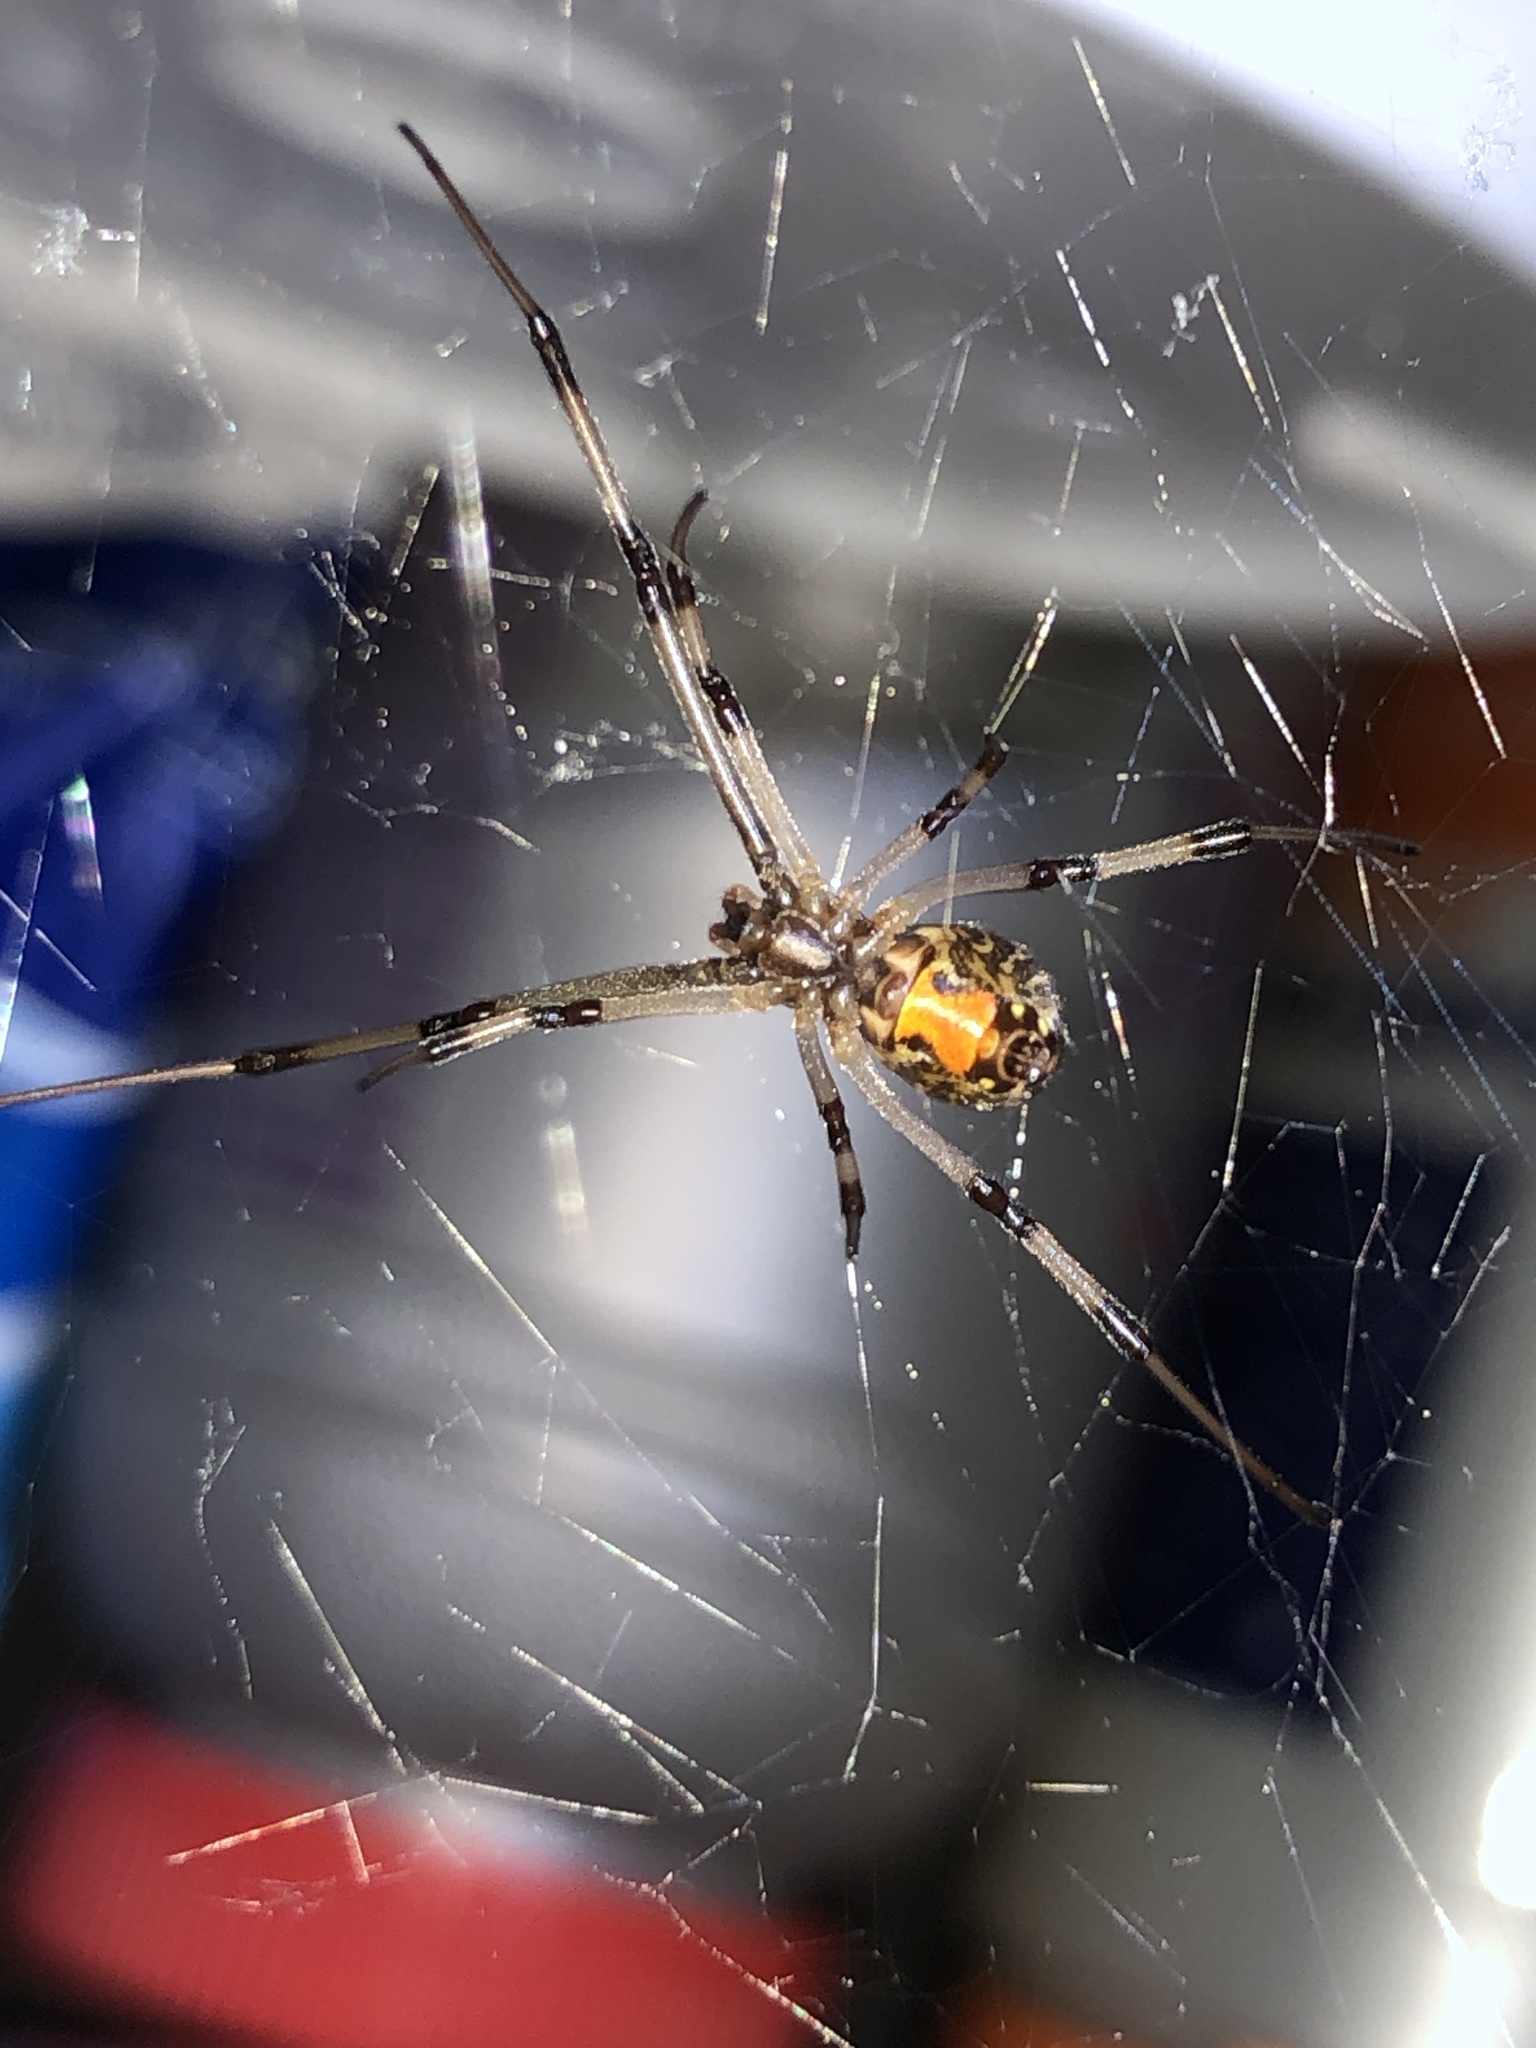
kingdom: Animalia
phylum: Arthropoda
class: Arachnida
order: Araneae
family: Theridiidae
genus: Latrodectus
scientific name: Latrodectus geometricus
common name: Brown widow spider
